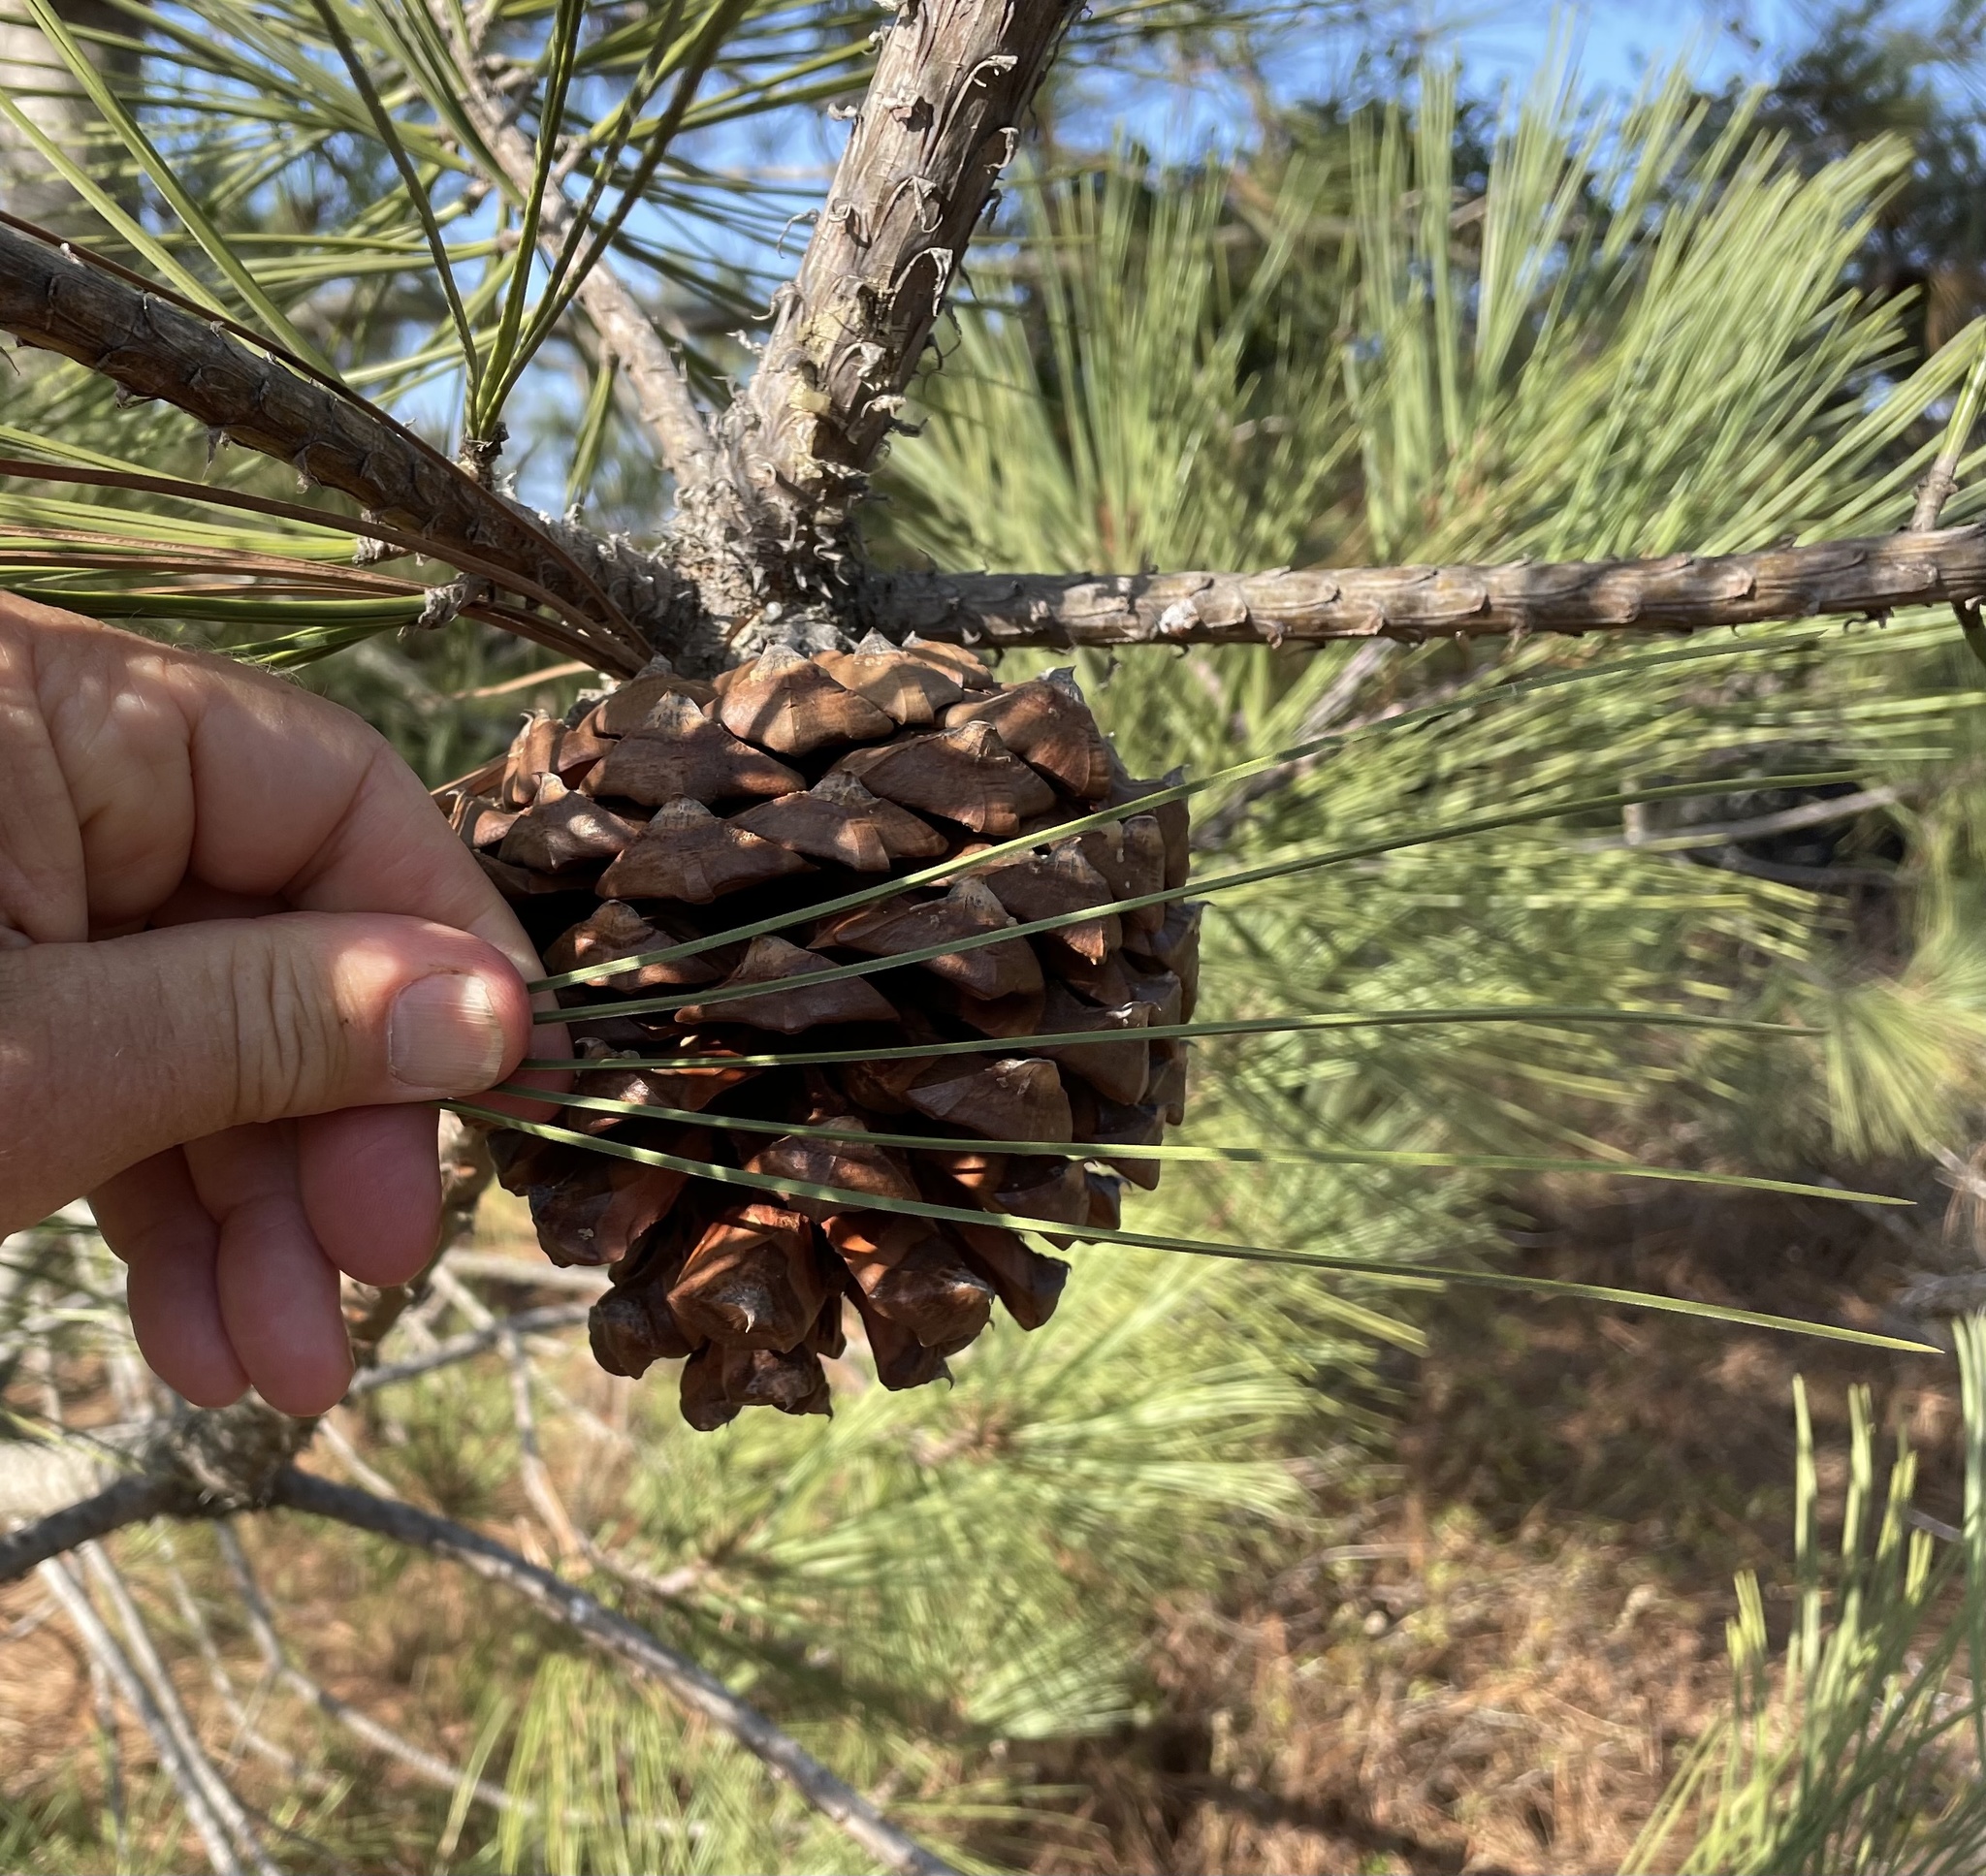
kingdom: Plantae
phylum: Tracheophyta
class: Pinopsida
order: Pinales
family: Pinaceae
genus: Pinus
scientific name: Pinus torreyana
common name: Torrey pine
